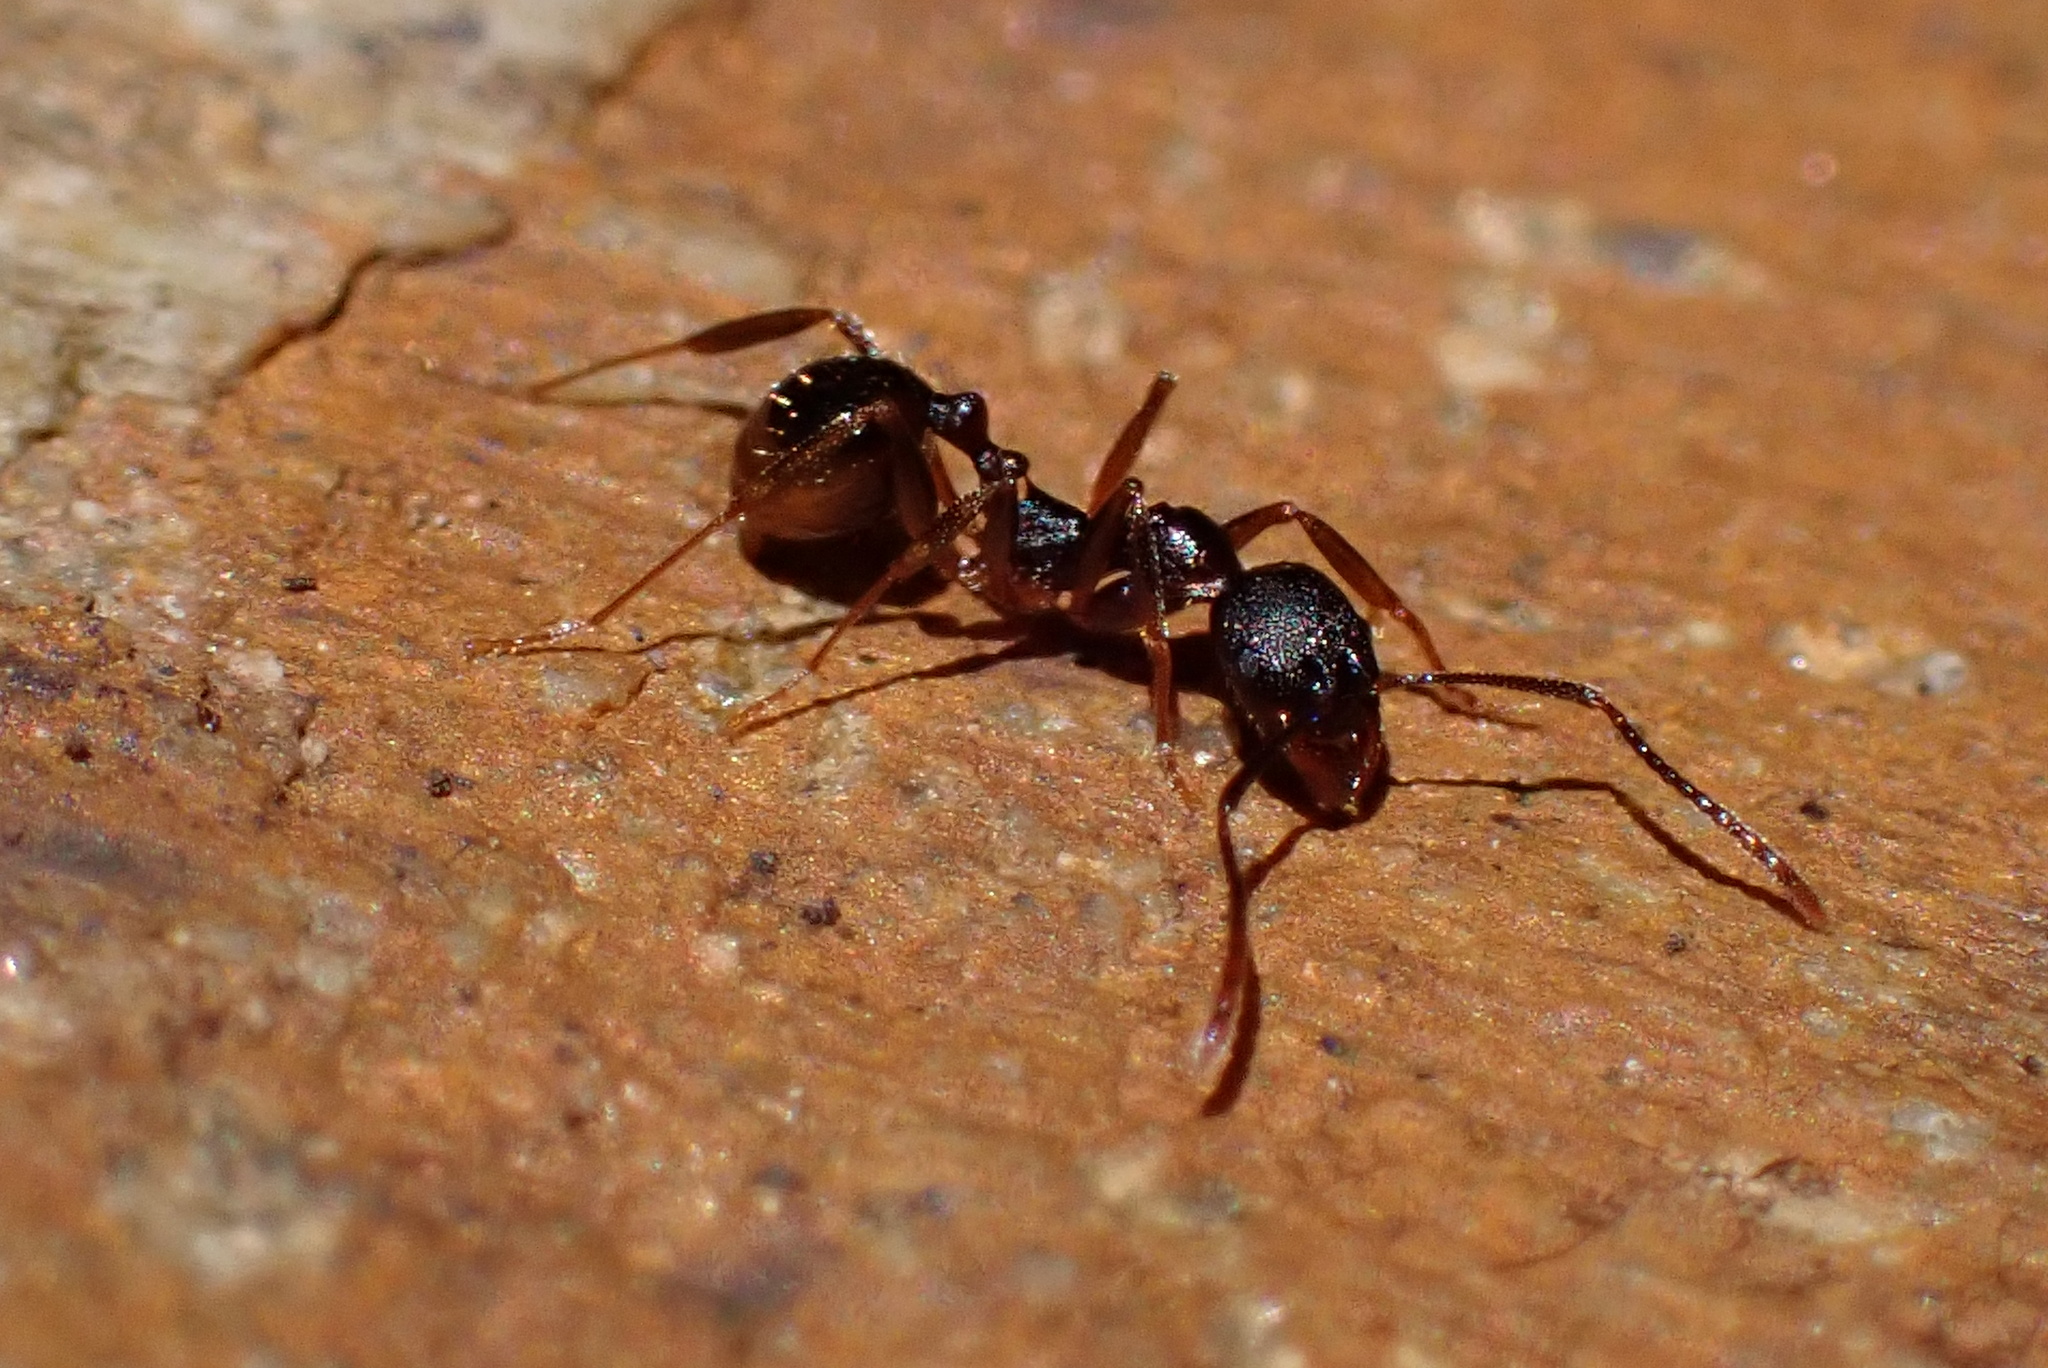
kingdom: Animalia
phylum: Arthropoda
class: Insecta
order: Hymenoptera
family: Formicidae
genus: Aphaenogaster
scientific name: Aphaenogaster fulva
